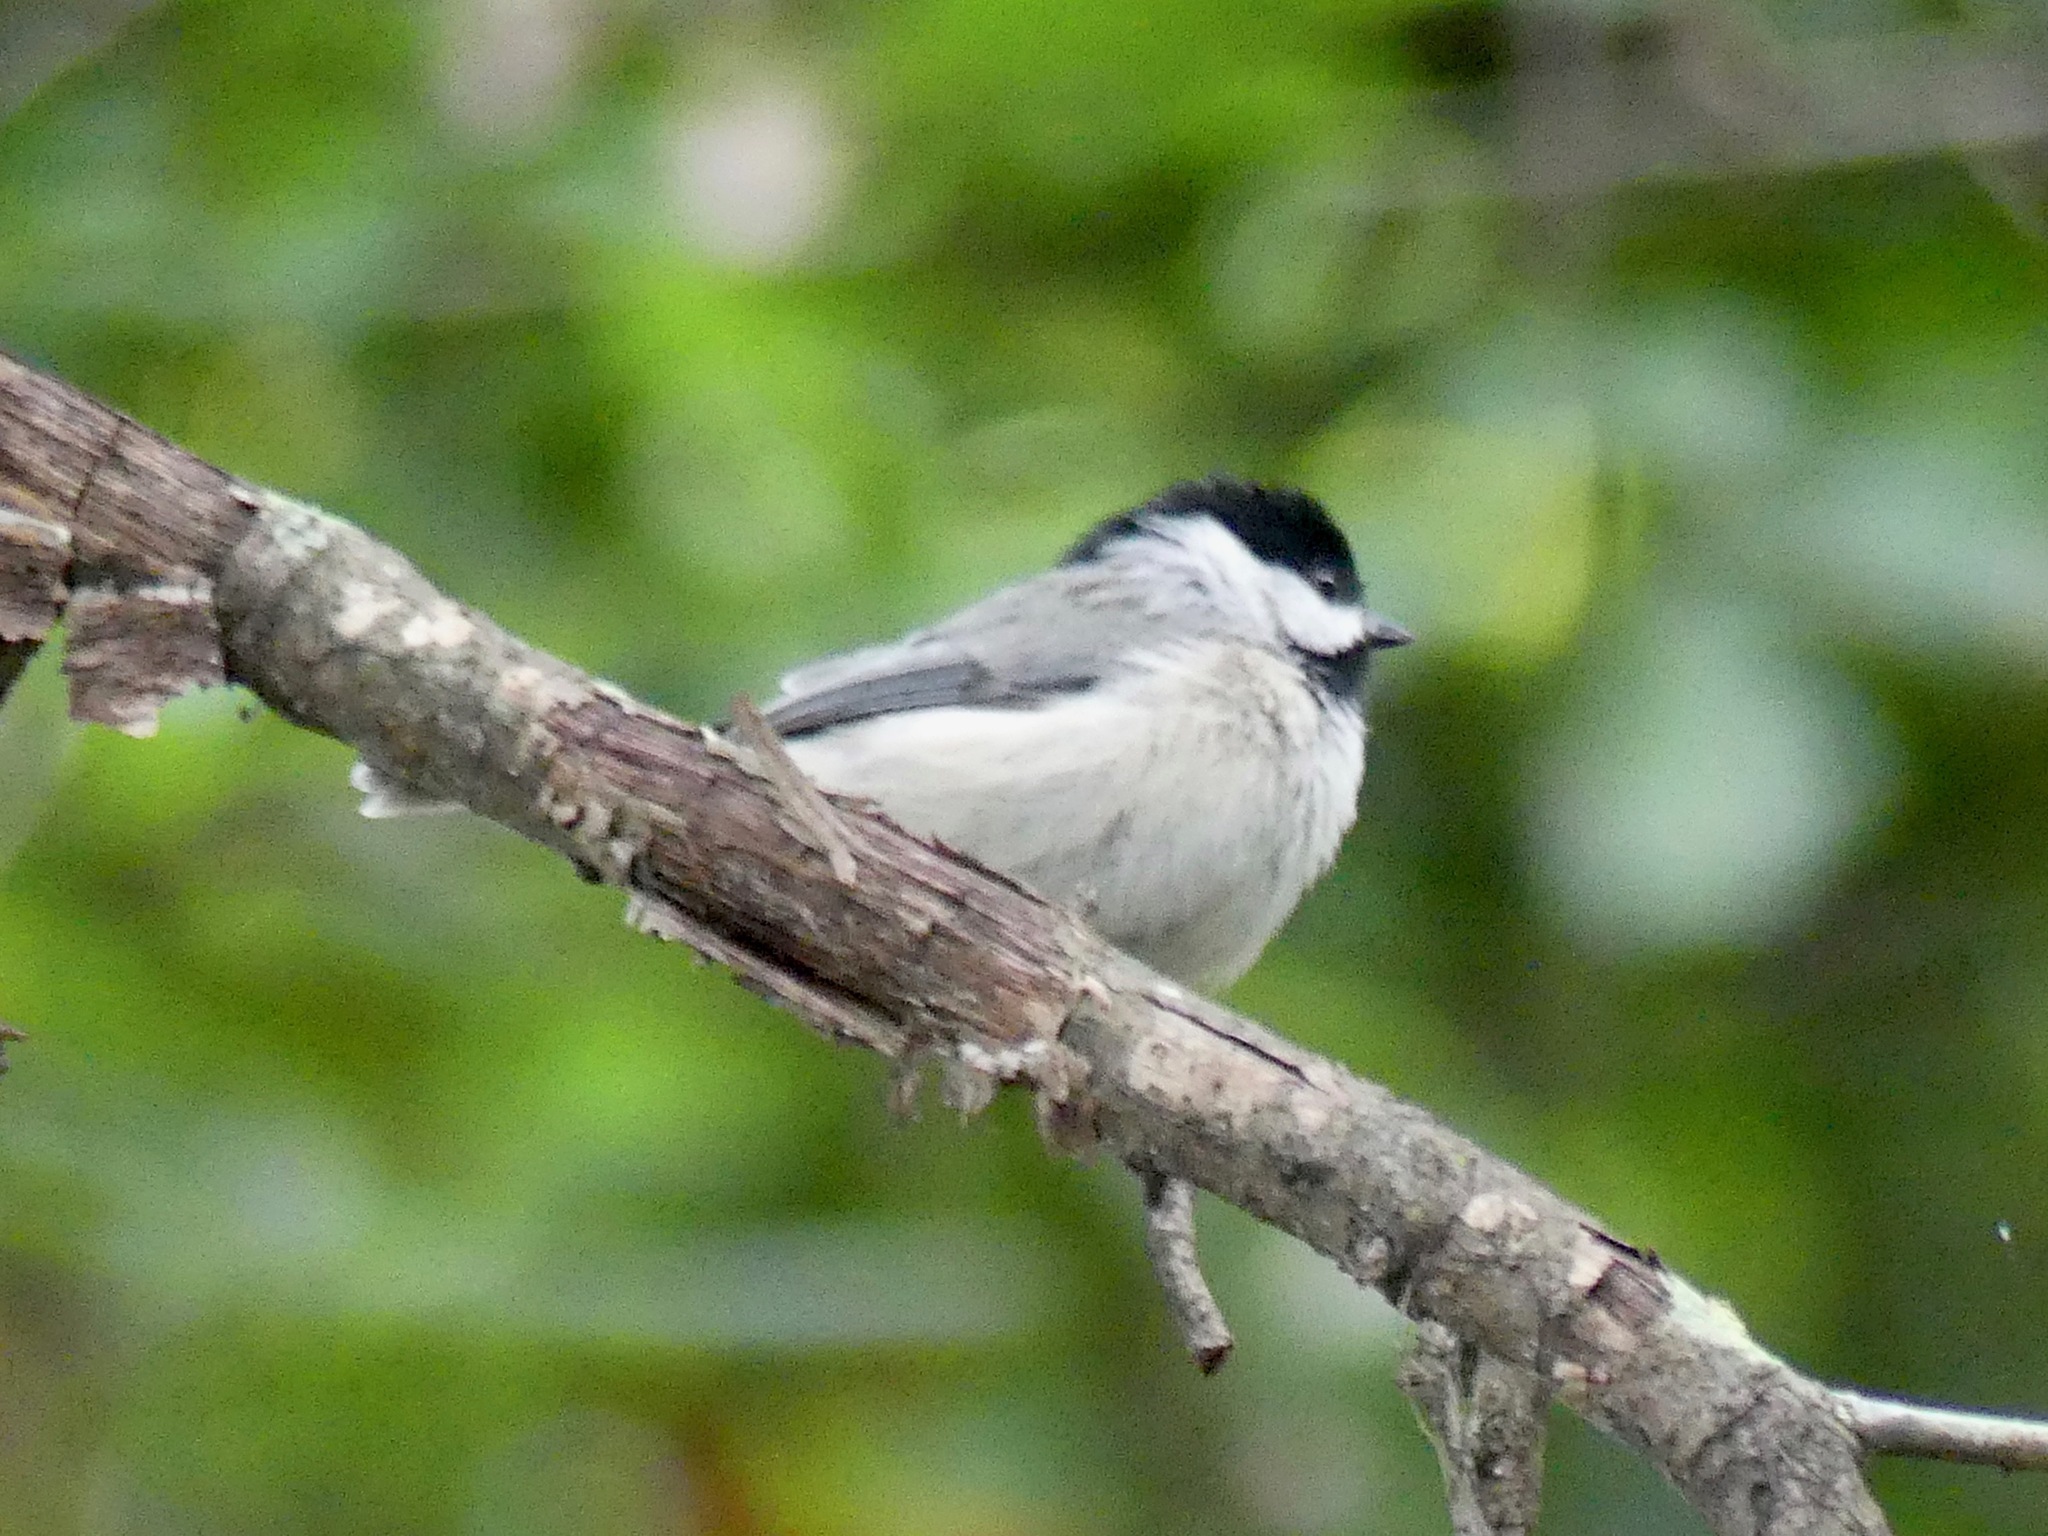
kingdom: Animalia
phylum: Chordata
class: Aves
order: Passeriformes
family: Paridae
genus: Poecile
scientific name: Poecile carolinensis
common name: Carolina chickadee
